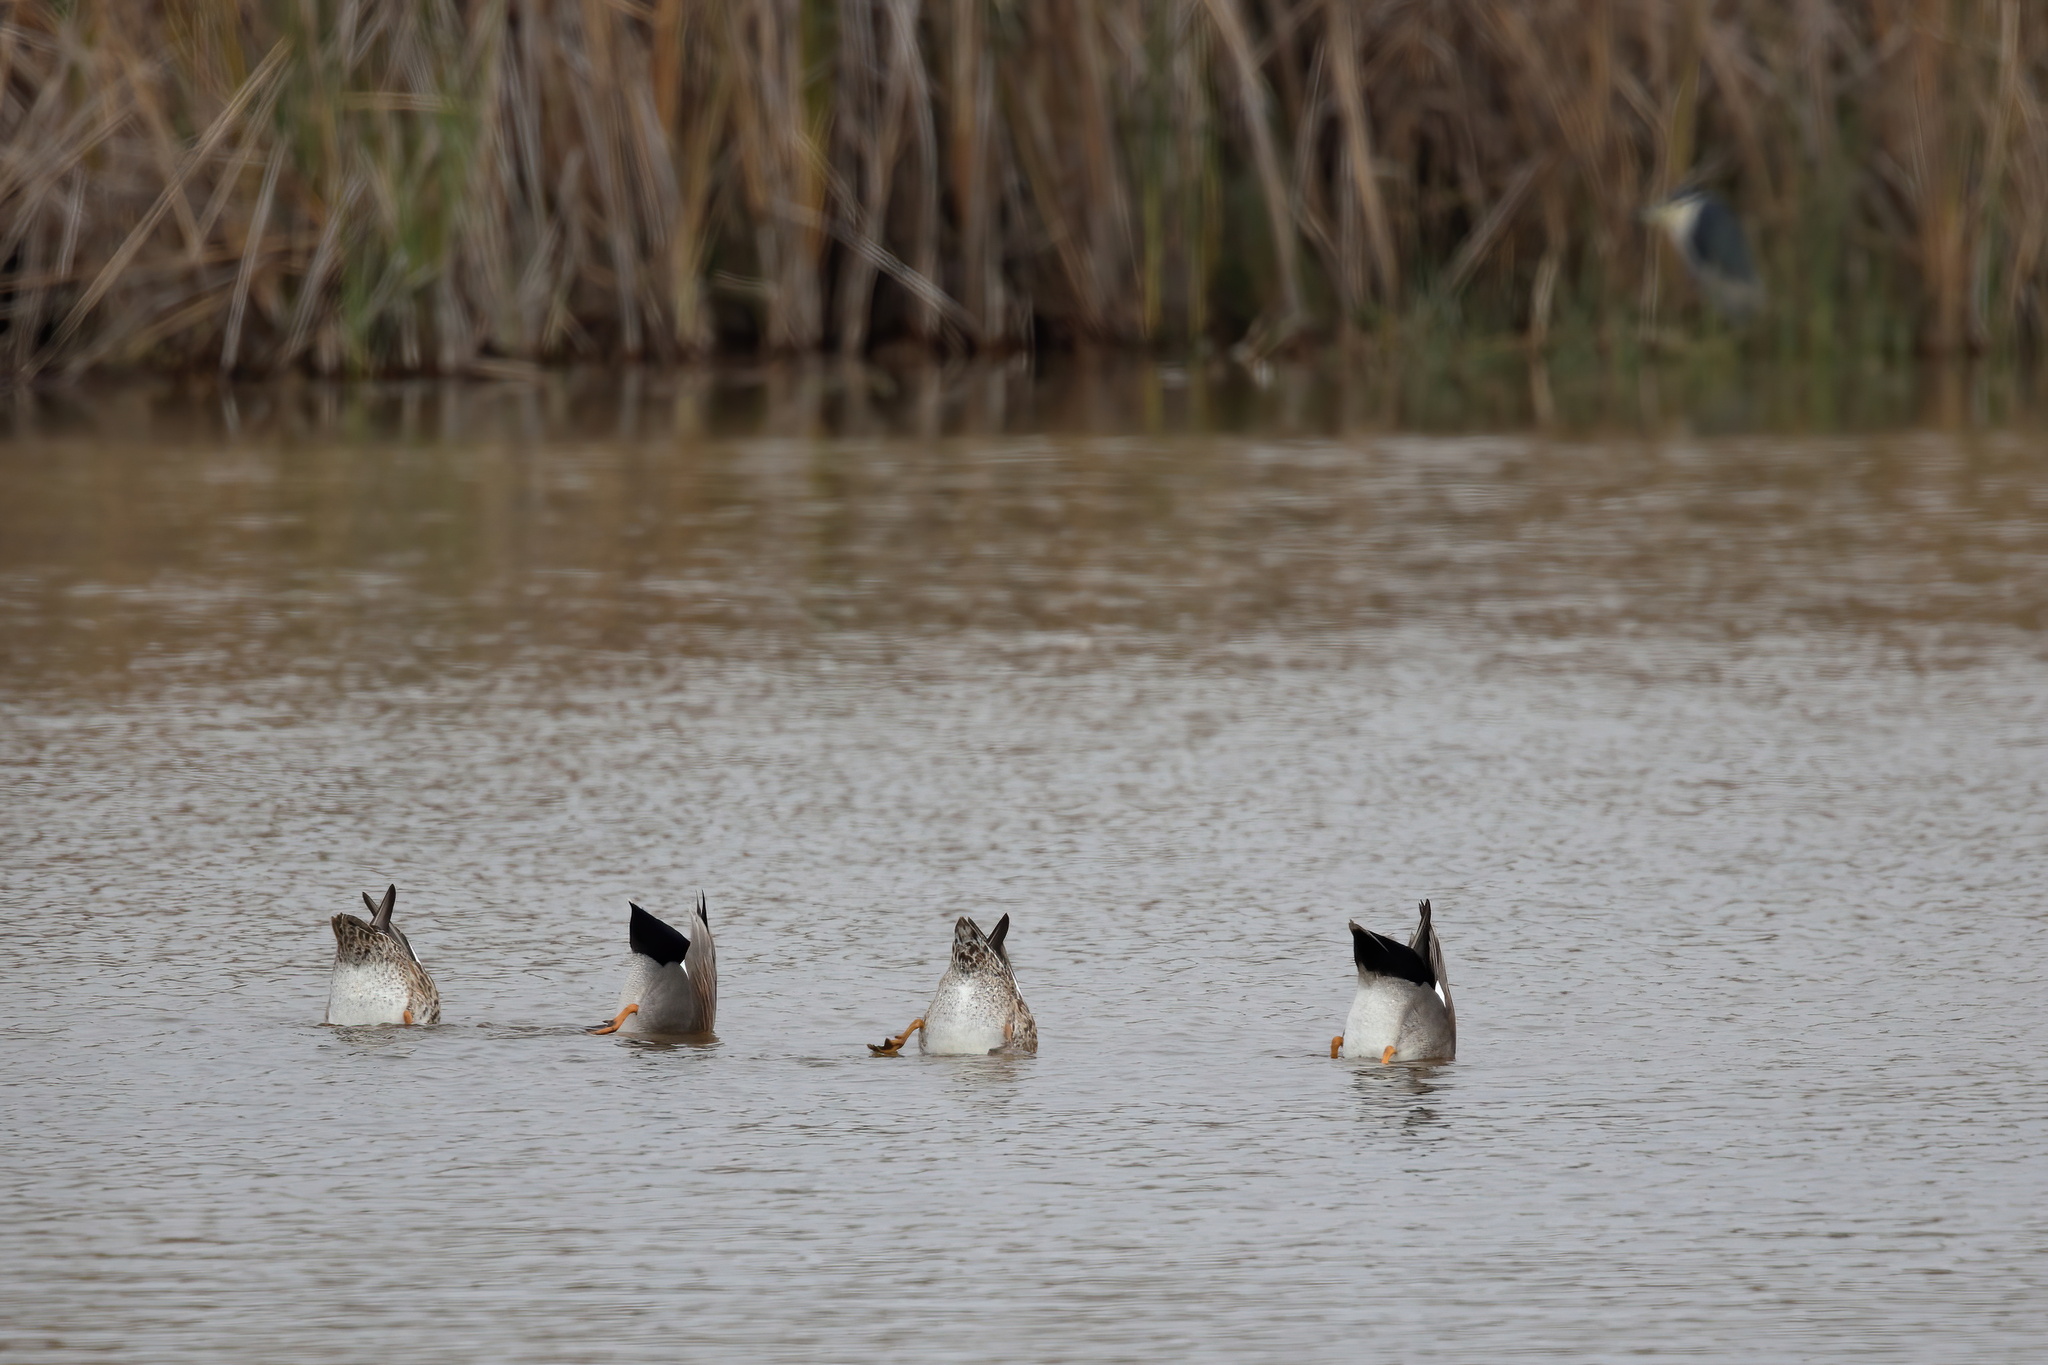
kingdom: Animalia
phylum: Chordata
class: Aves
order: Anseriformes
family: Anatidae
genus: Mareca
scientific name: Mareca strepera
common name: Gadwall
